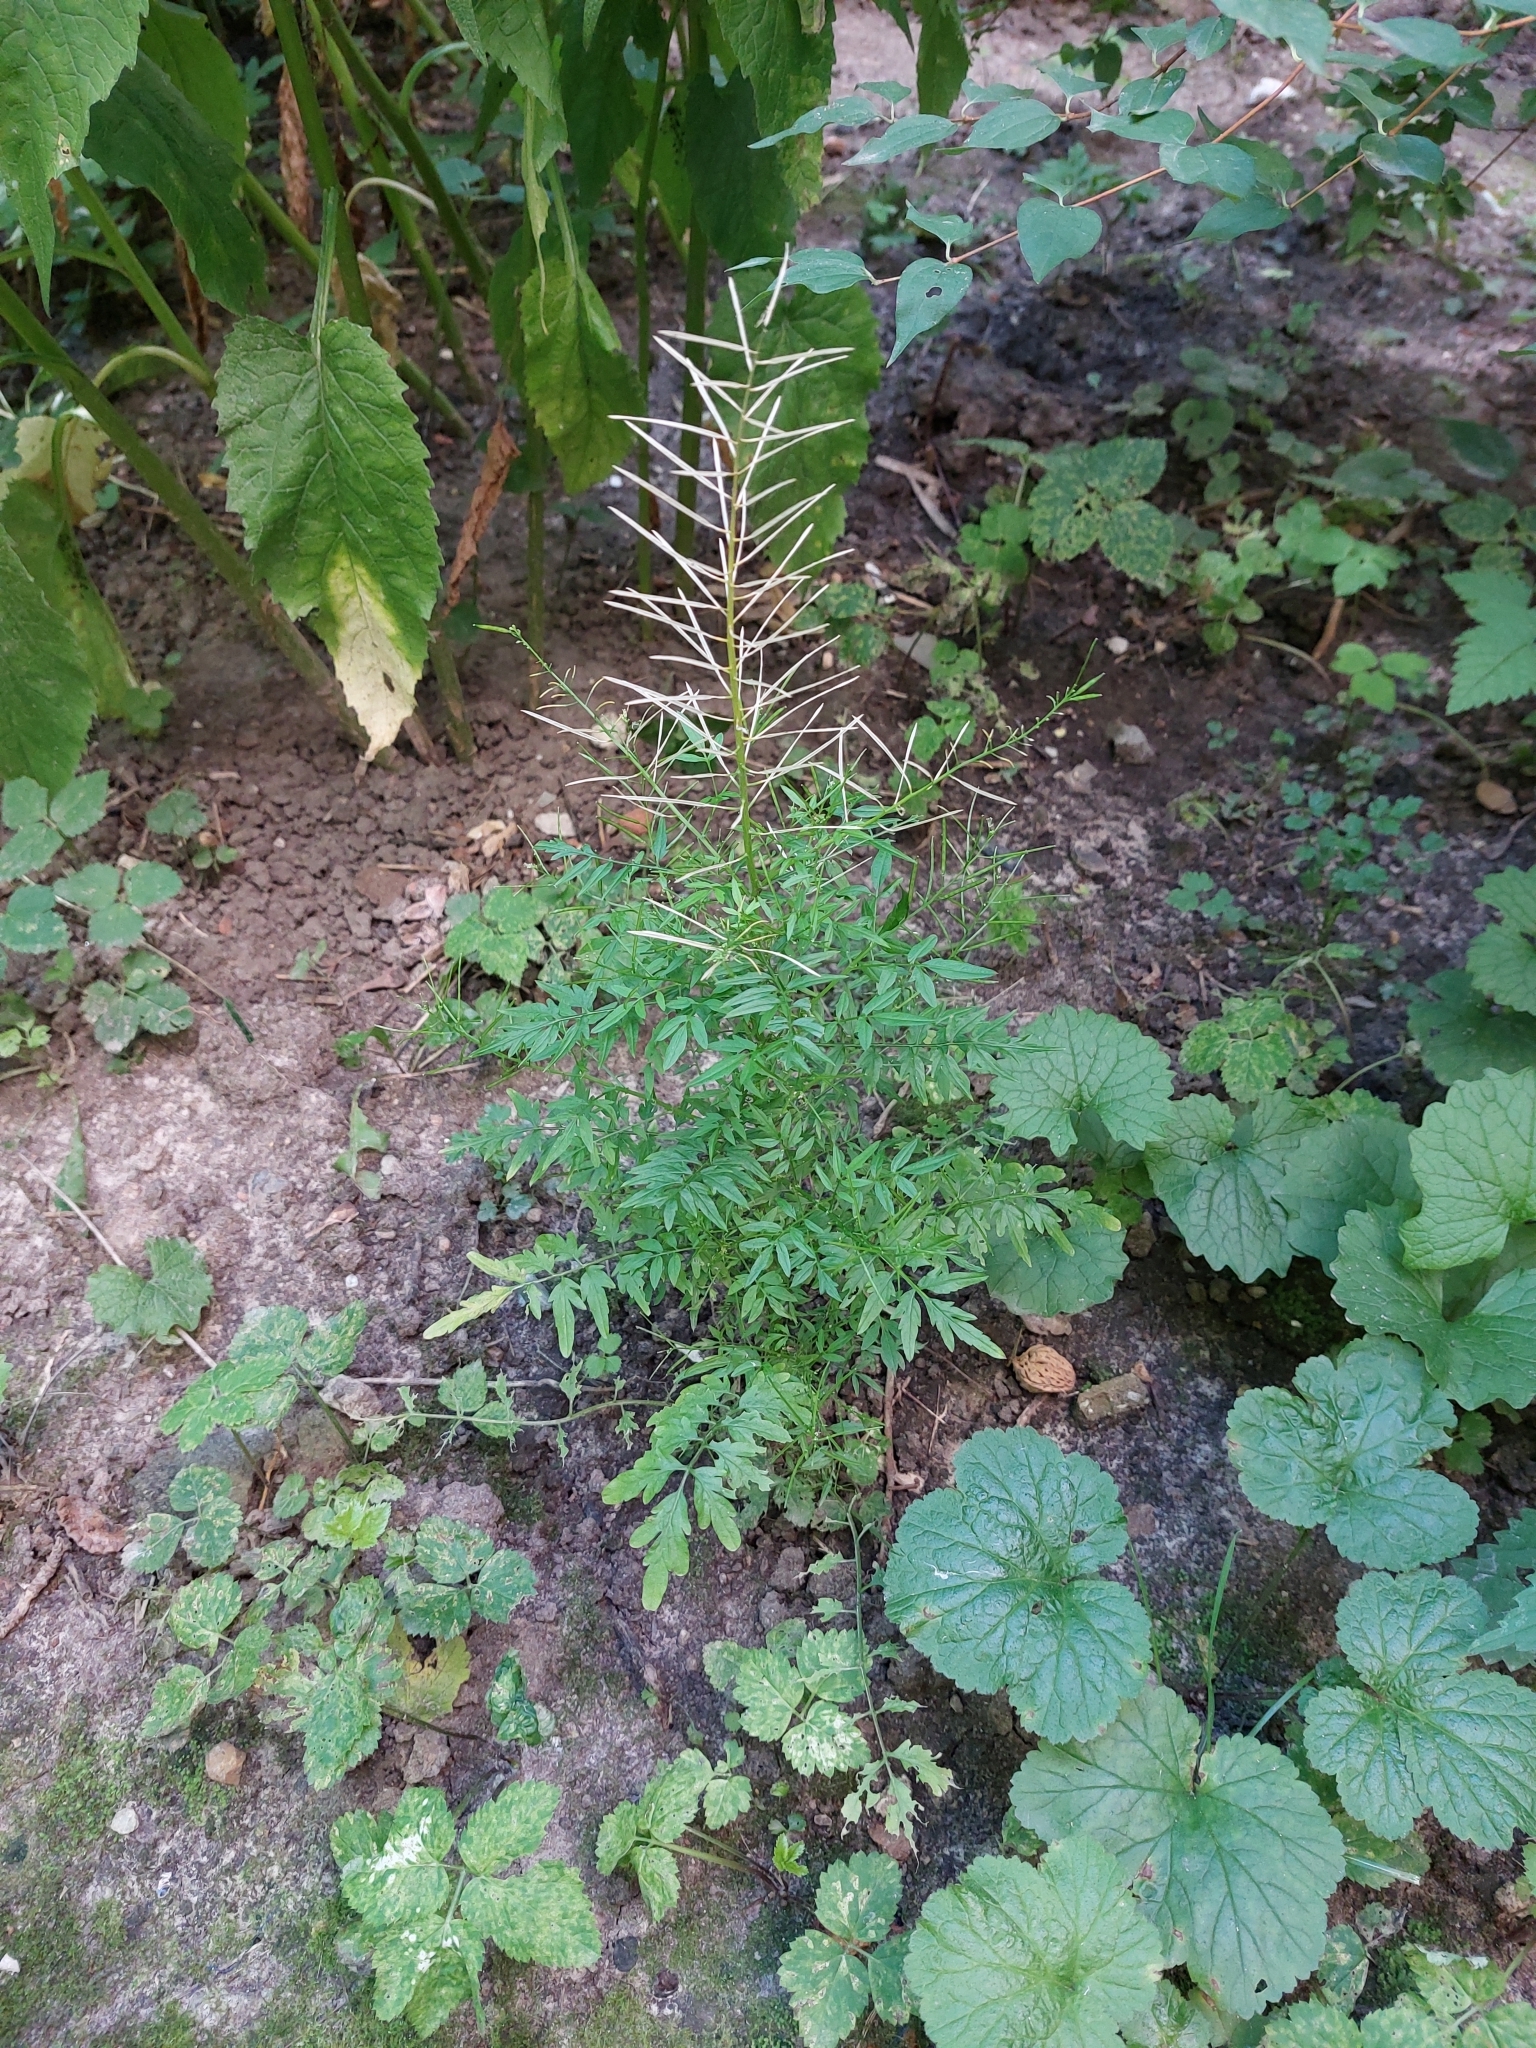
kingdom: Plantae
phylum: Tracheophyta
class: Magnoliopsida
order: Brassicales
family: Brassicaceae
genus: Cardamine
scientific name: Cardamine impatiens
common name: Narrow-leaved bitter-cress
